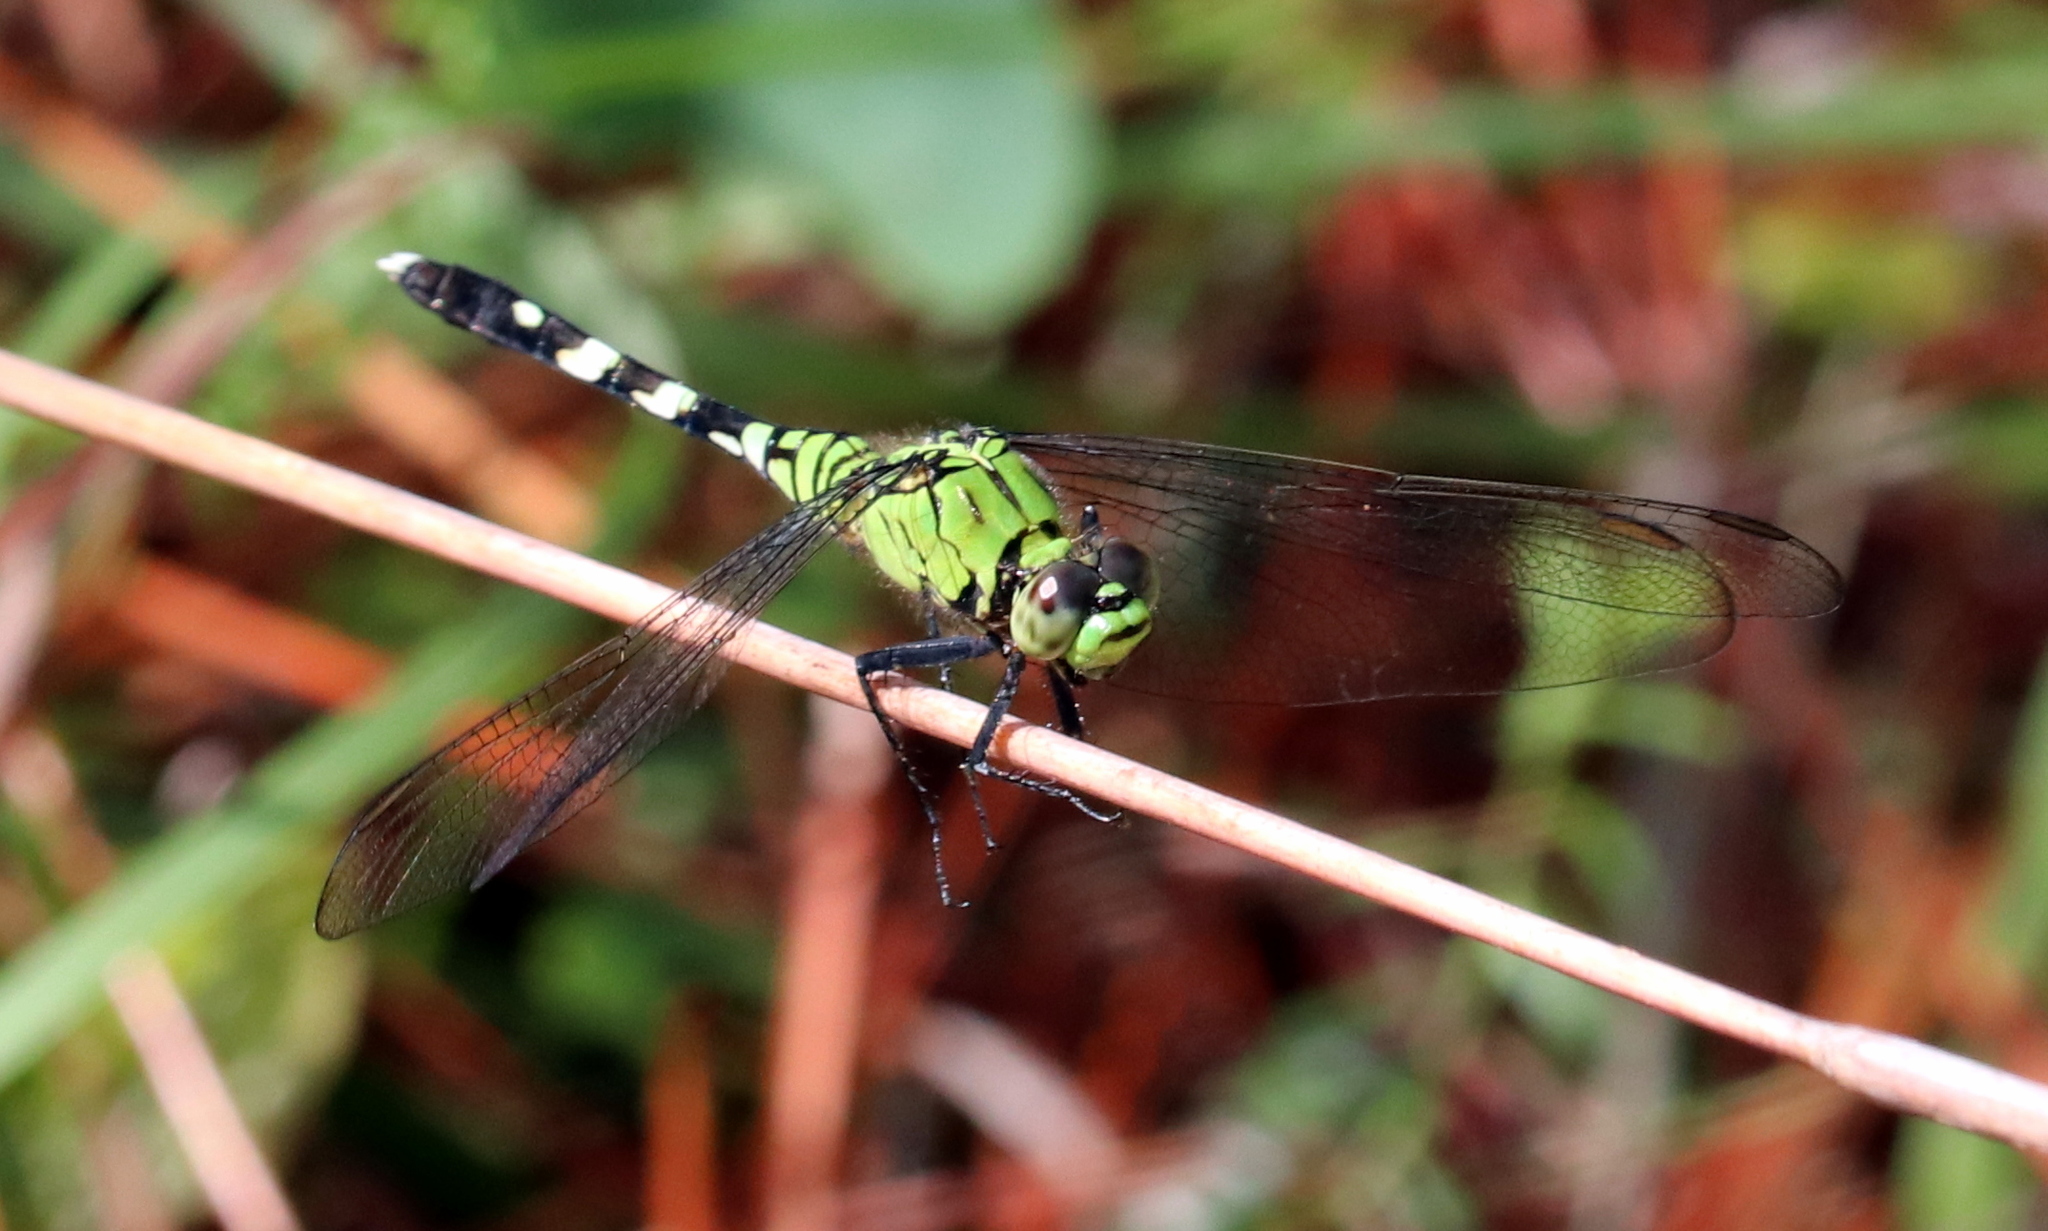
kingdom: Animalia
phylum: Arthropoda
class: Insecta
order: Odonata
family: Libellulidae
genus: Erythemis
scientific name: Erythemis simplicicollis
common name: Eastern pondhawk
